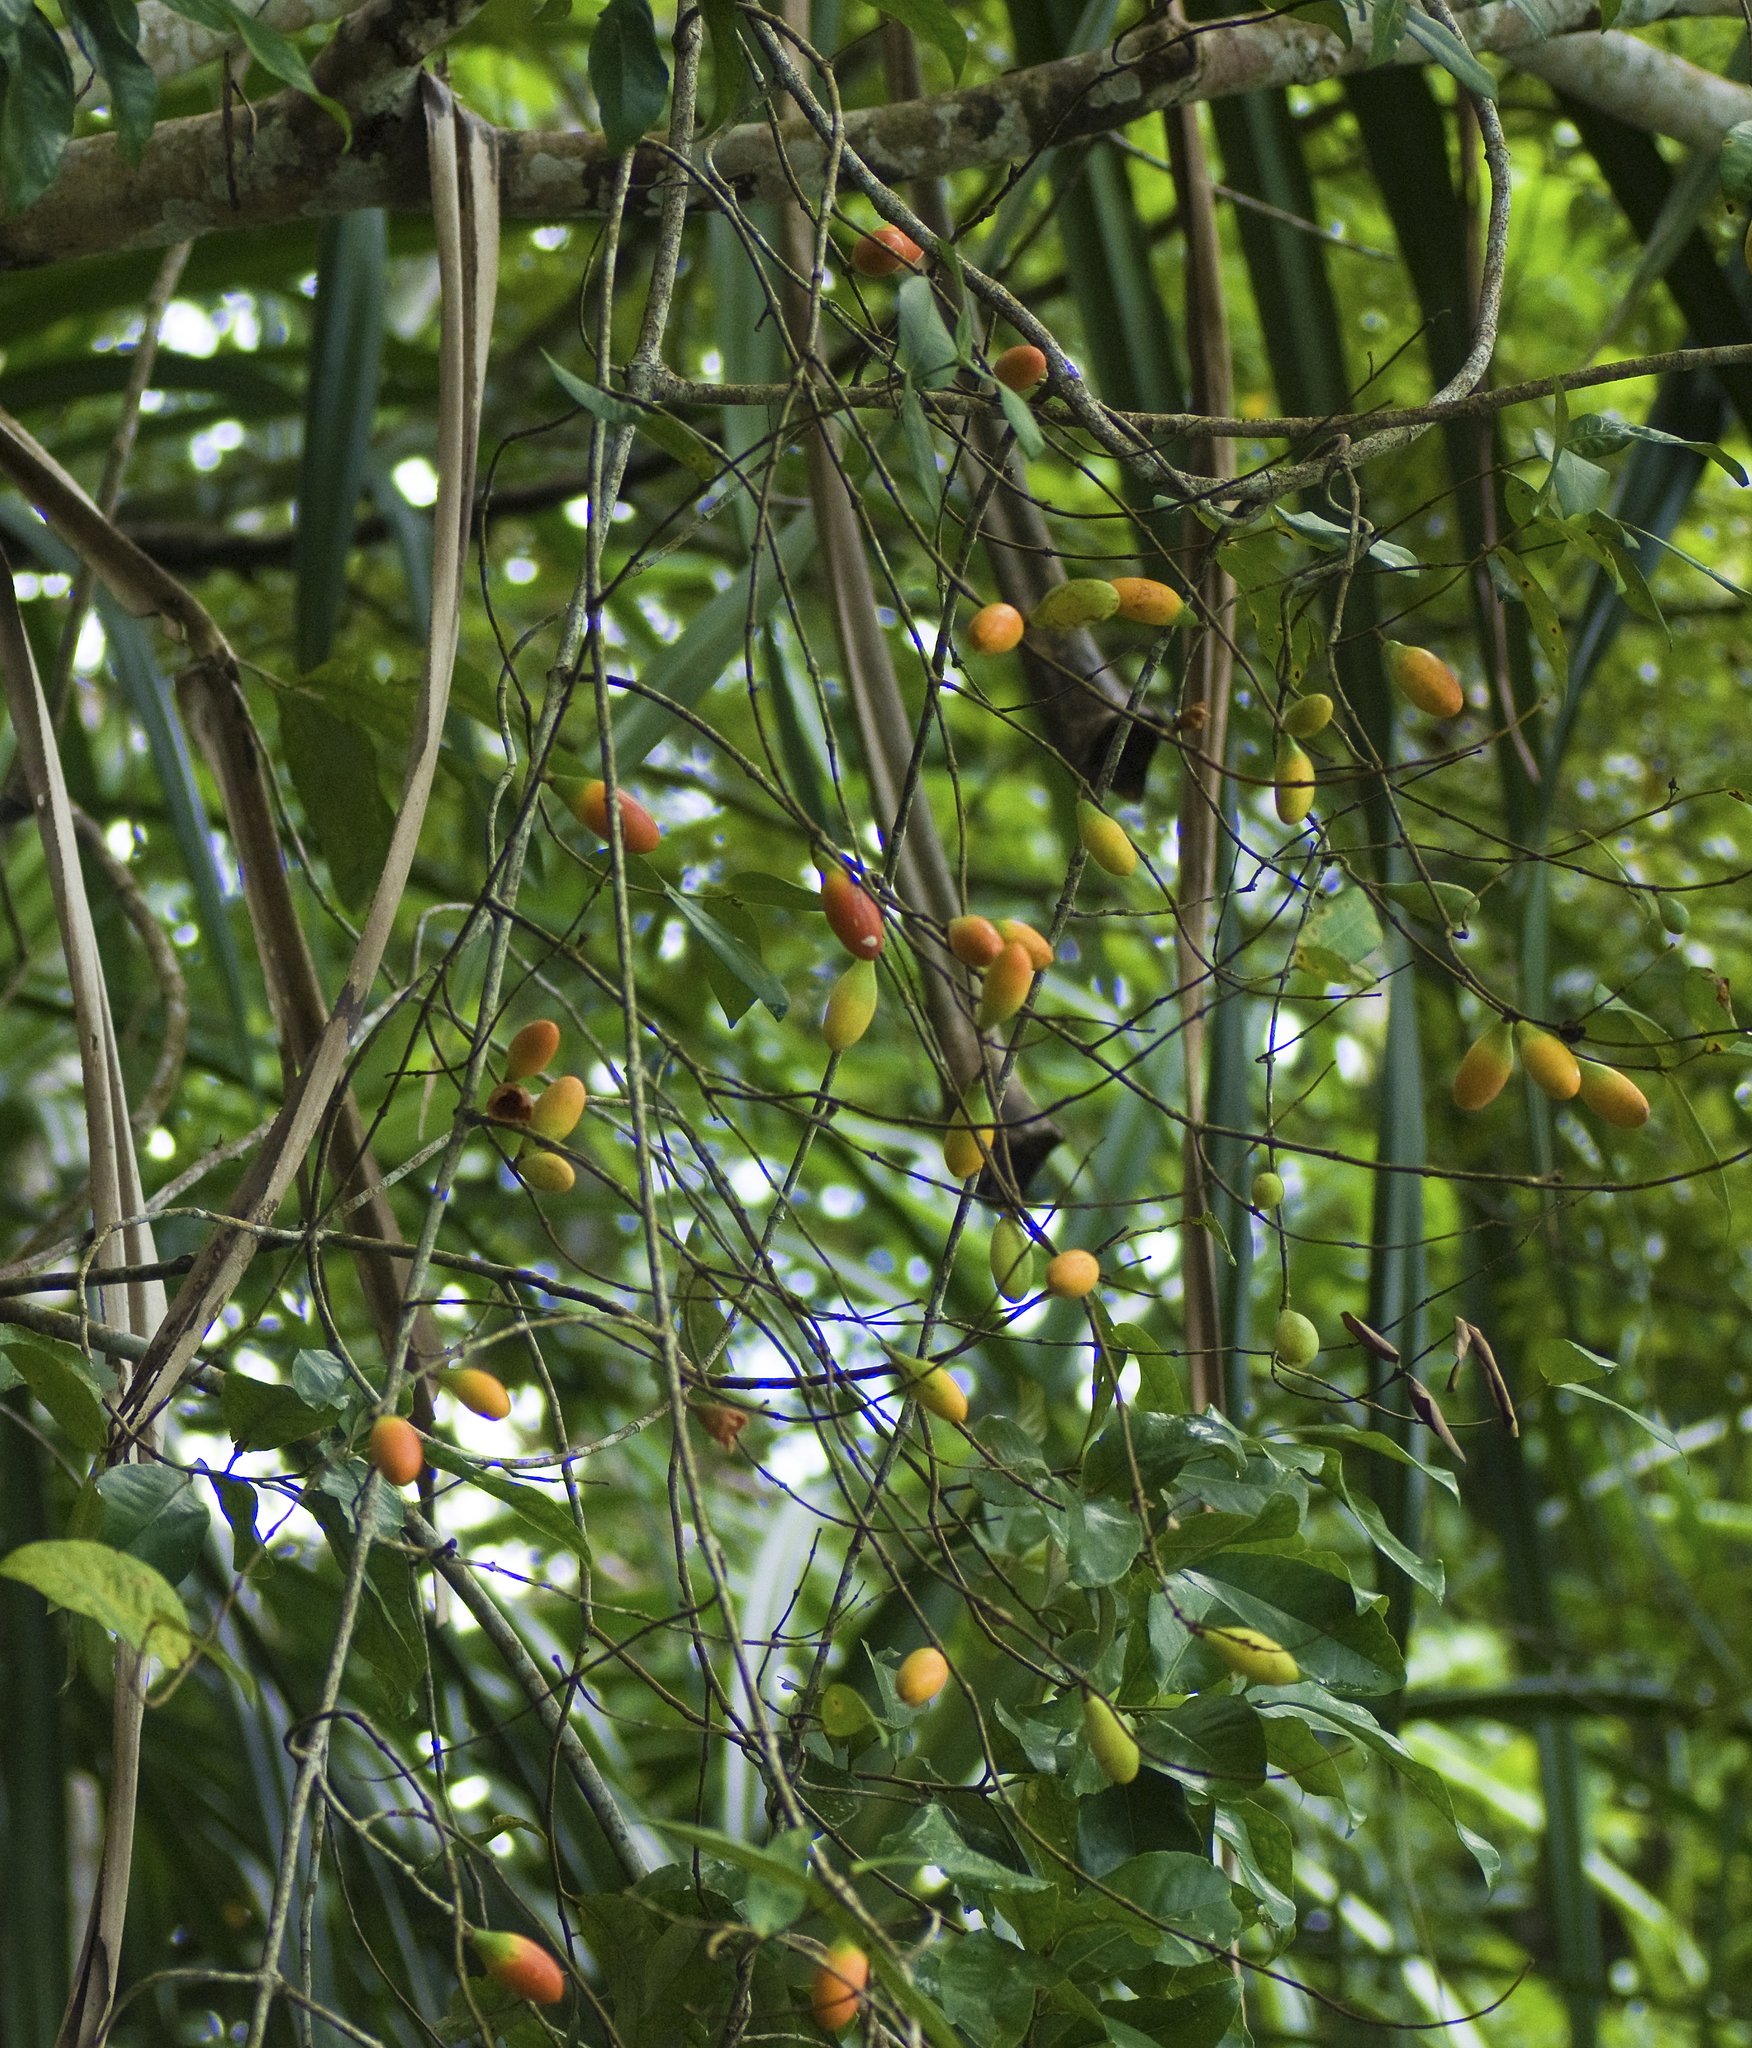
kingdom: Plantae
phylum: Tracheophyta
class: Magnoliopsida
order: Gentianales
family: Apocynaceae
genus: Melodinus
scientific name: Melodinus australis
